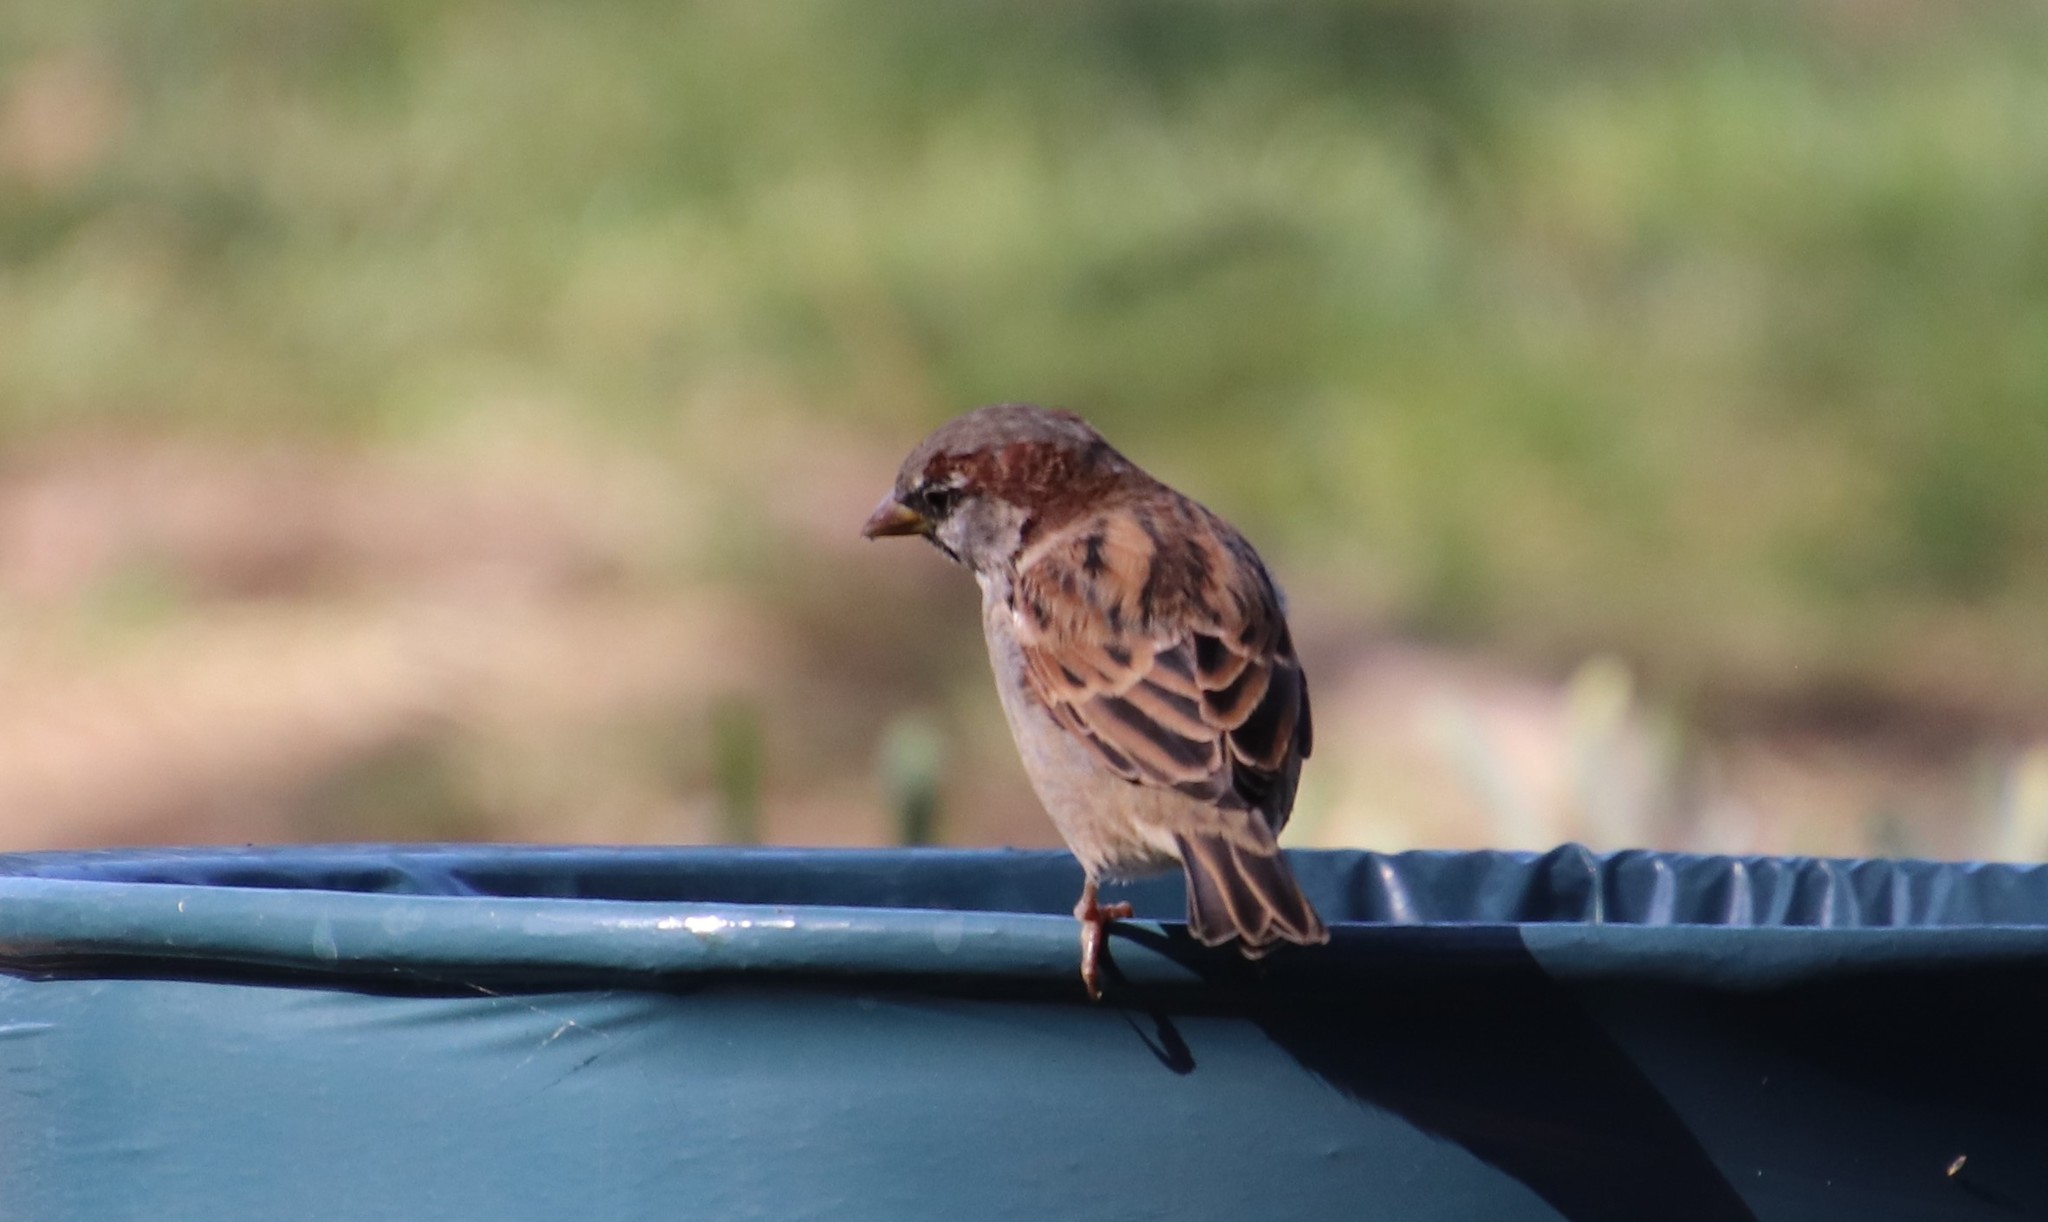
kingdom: Animalia
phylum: Chordata
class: Aves
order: Passeriformes
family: Passeridae
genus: Passer
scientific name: Passer domesticus
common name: House sparrow
